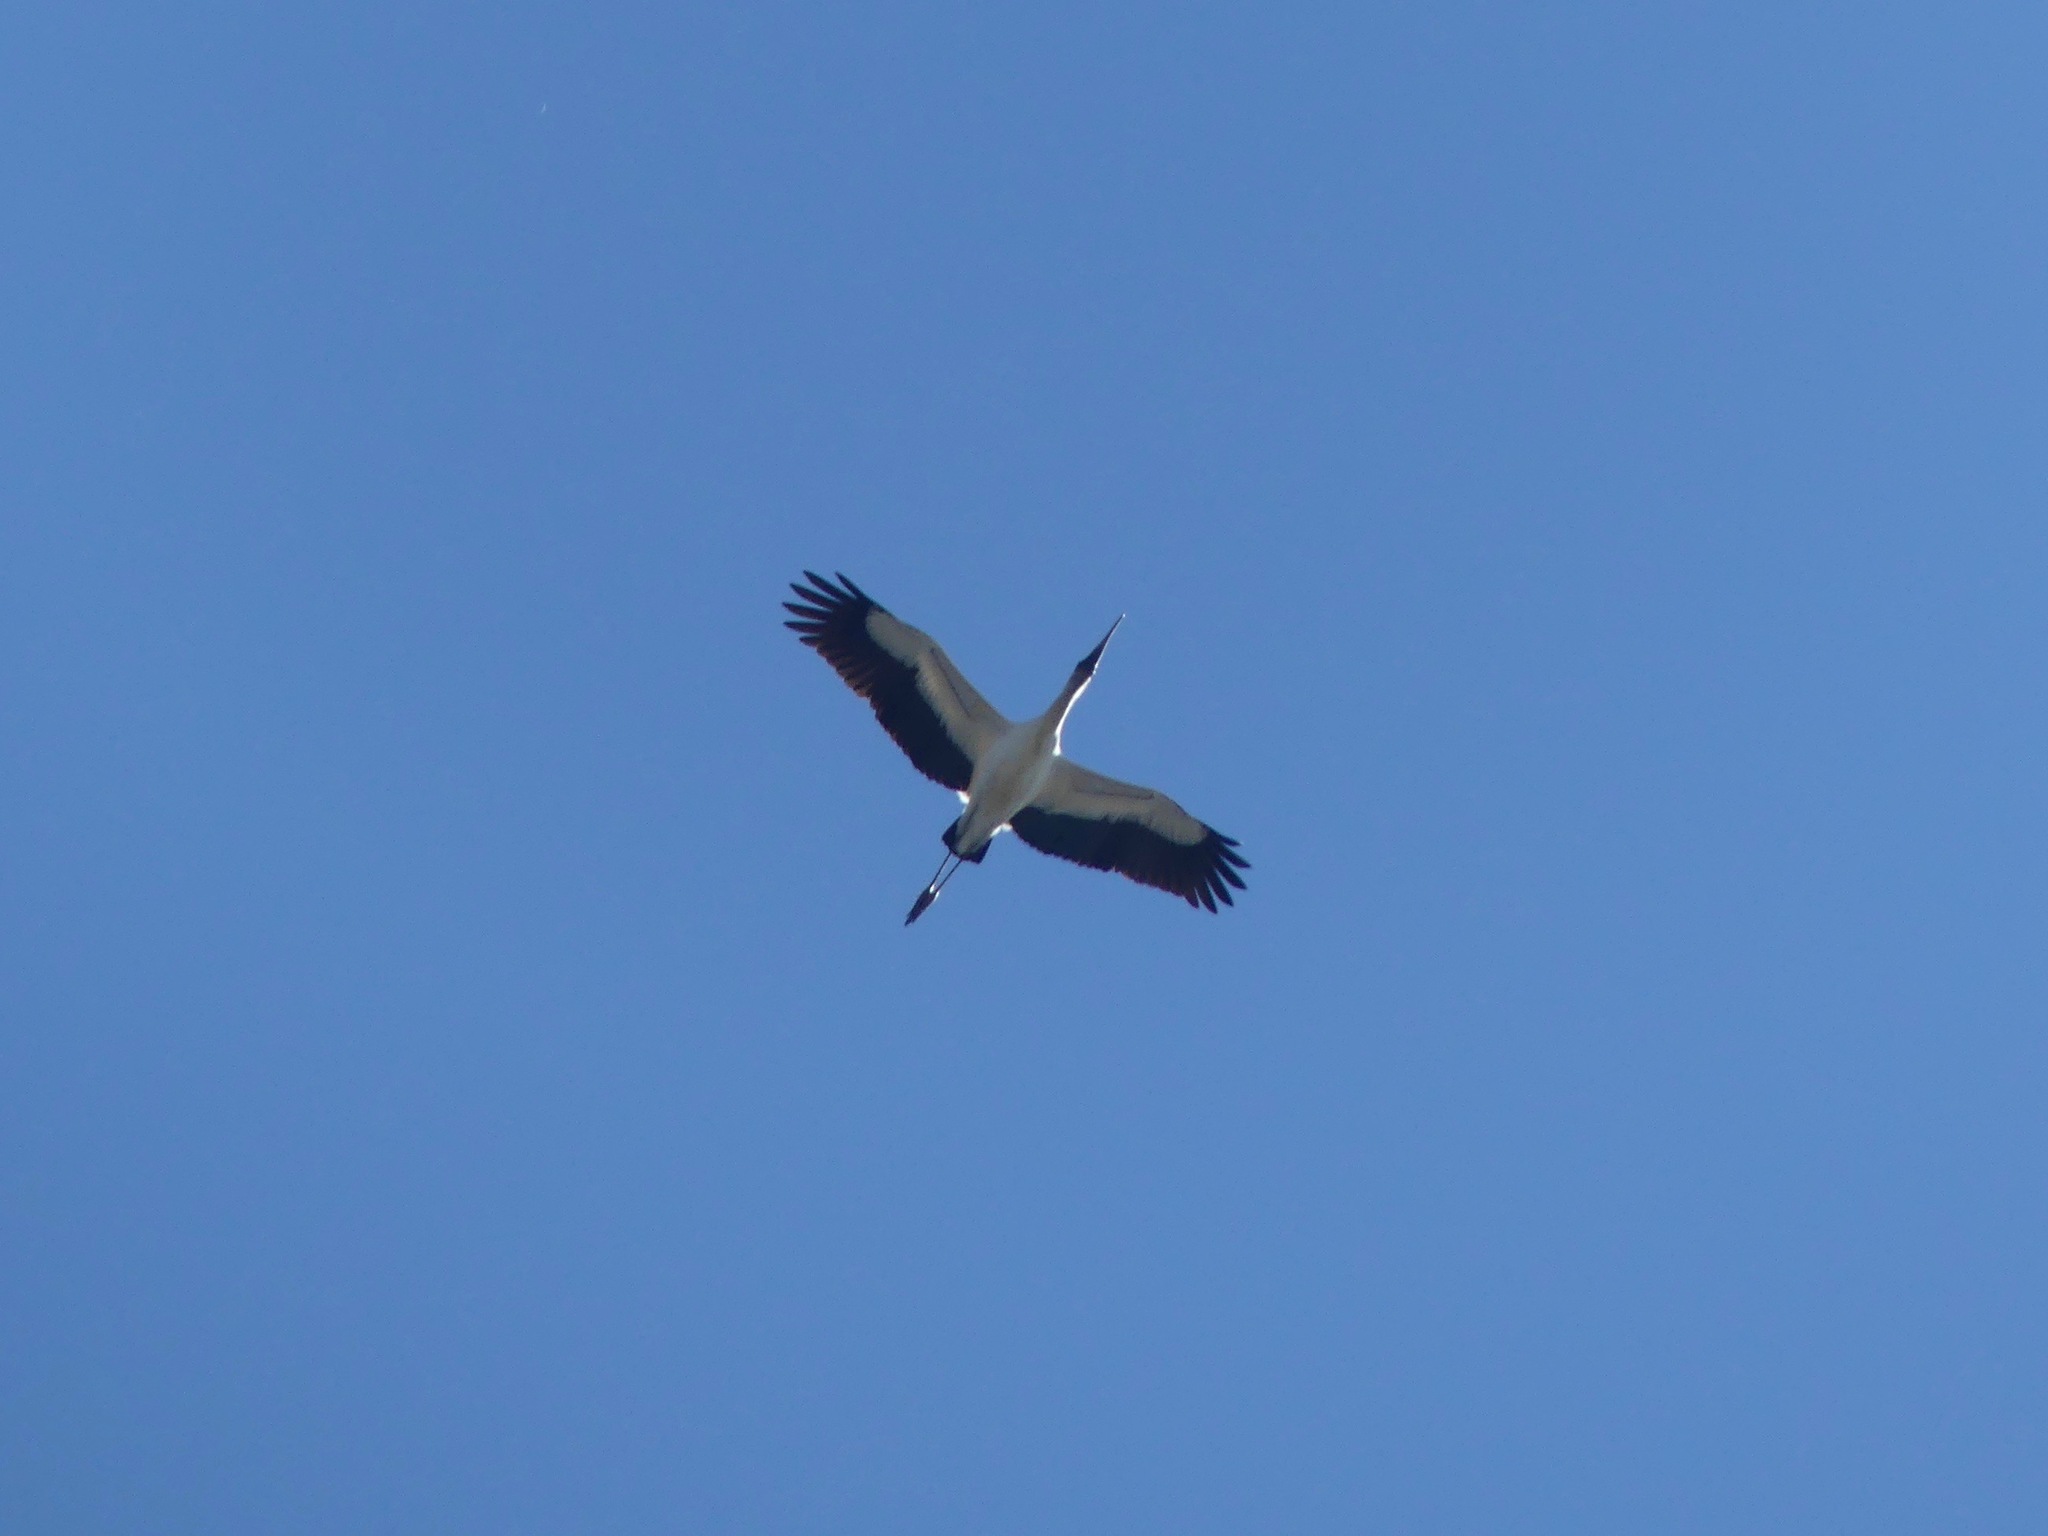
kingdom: Animalia
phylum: Chordata
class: Aves
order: Ciconiiformes
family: Ciconiidae
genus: Mycteria
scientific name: Mycteria americana
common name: Wood stork
